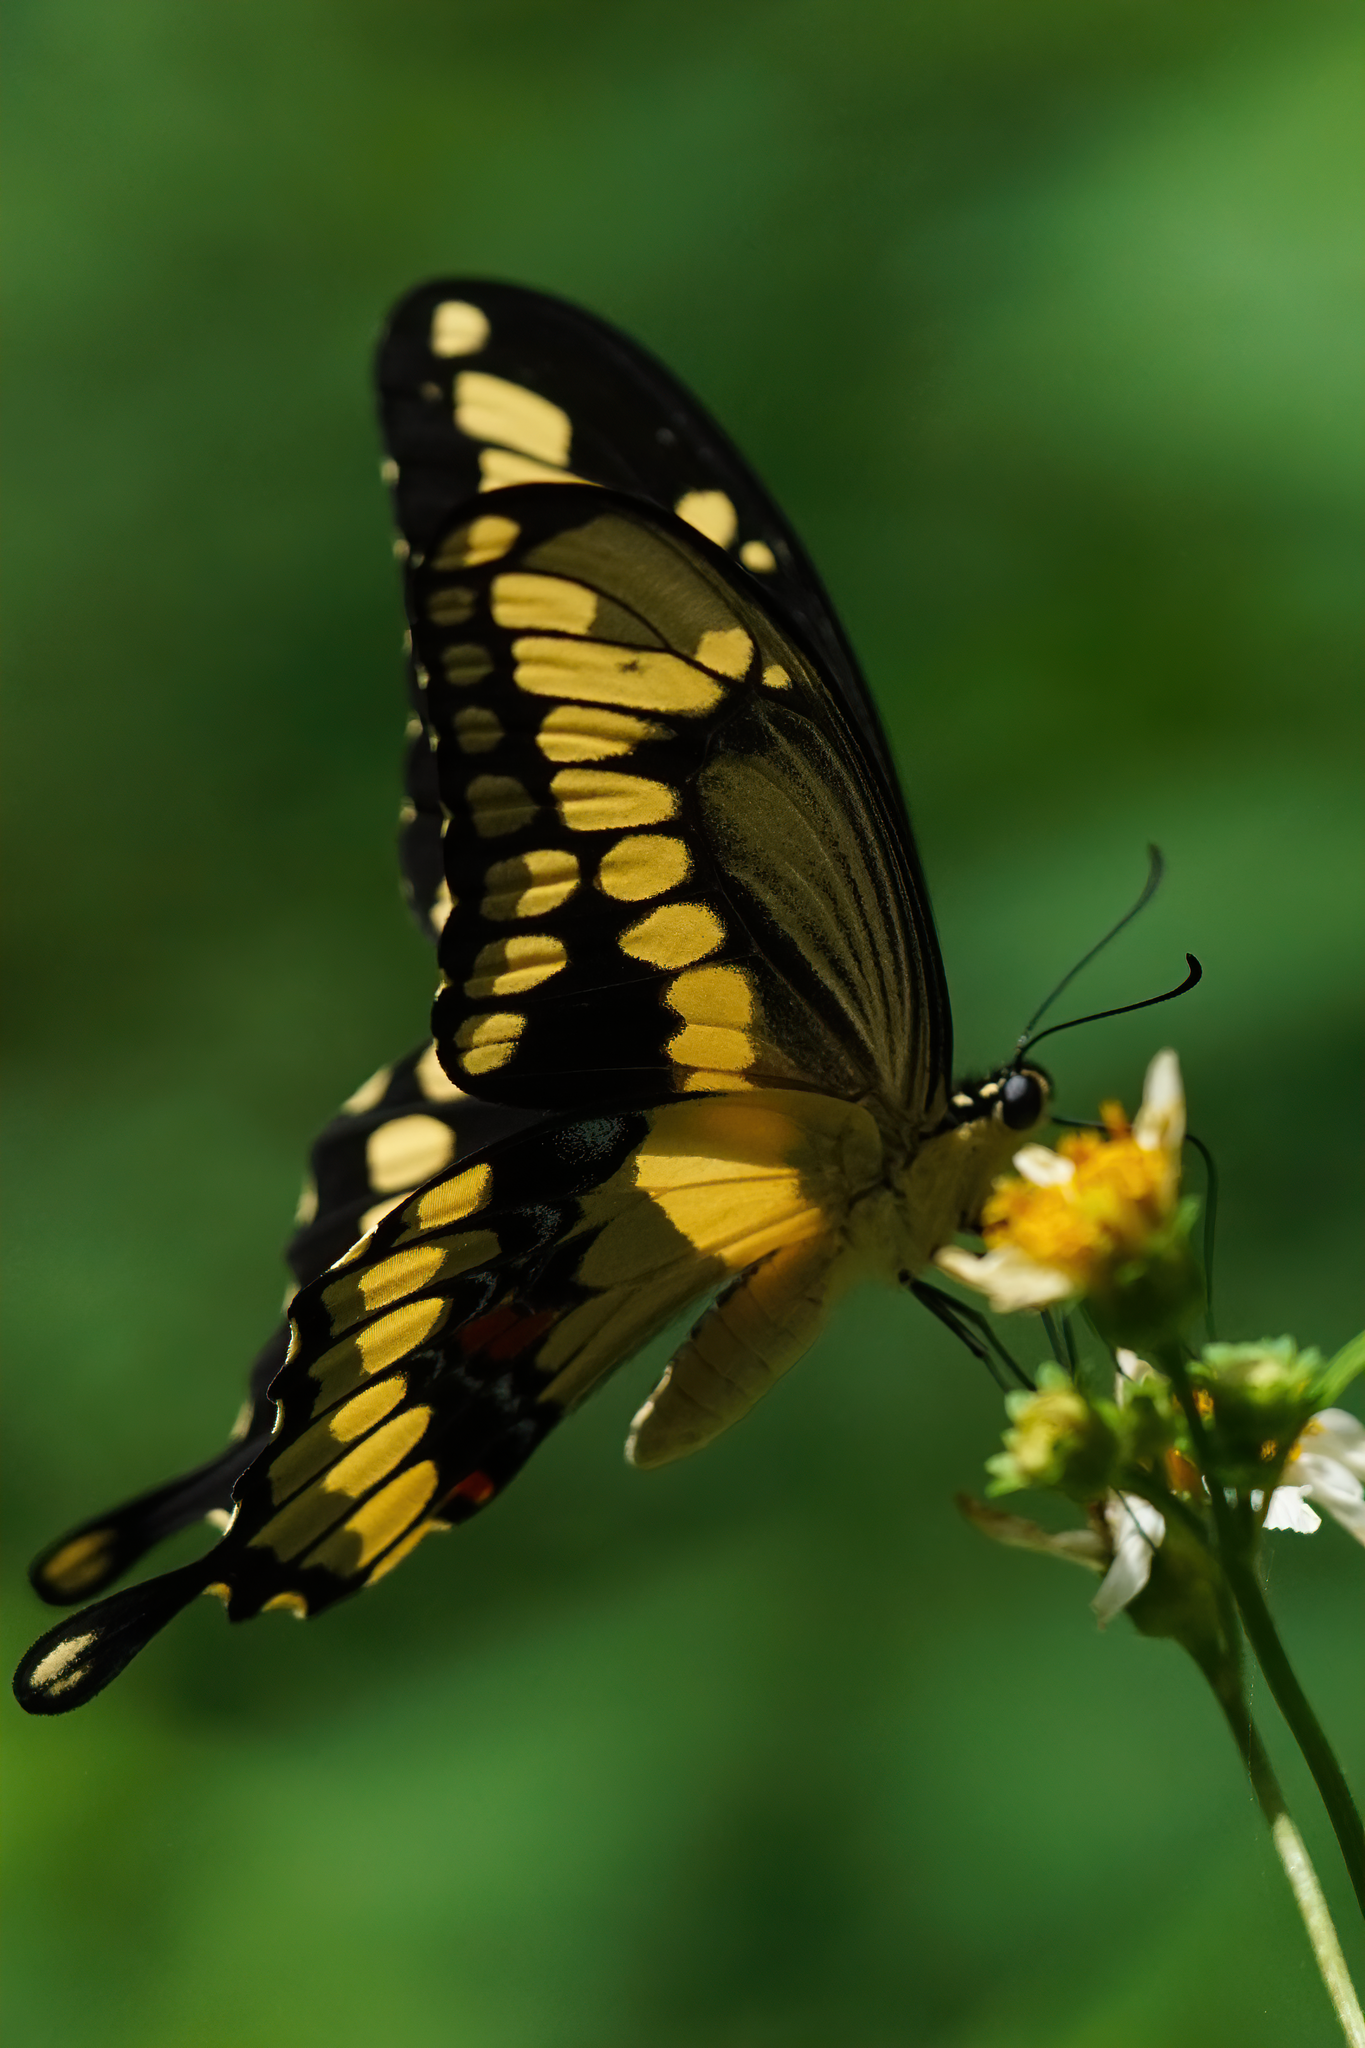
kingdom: Animalia
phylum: Arthropoda
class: Insecta
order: Lepidoptera
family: Papilionidae
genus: Papilio
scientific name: Papilio cresphontes
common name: Giant swallowtail
